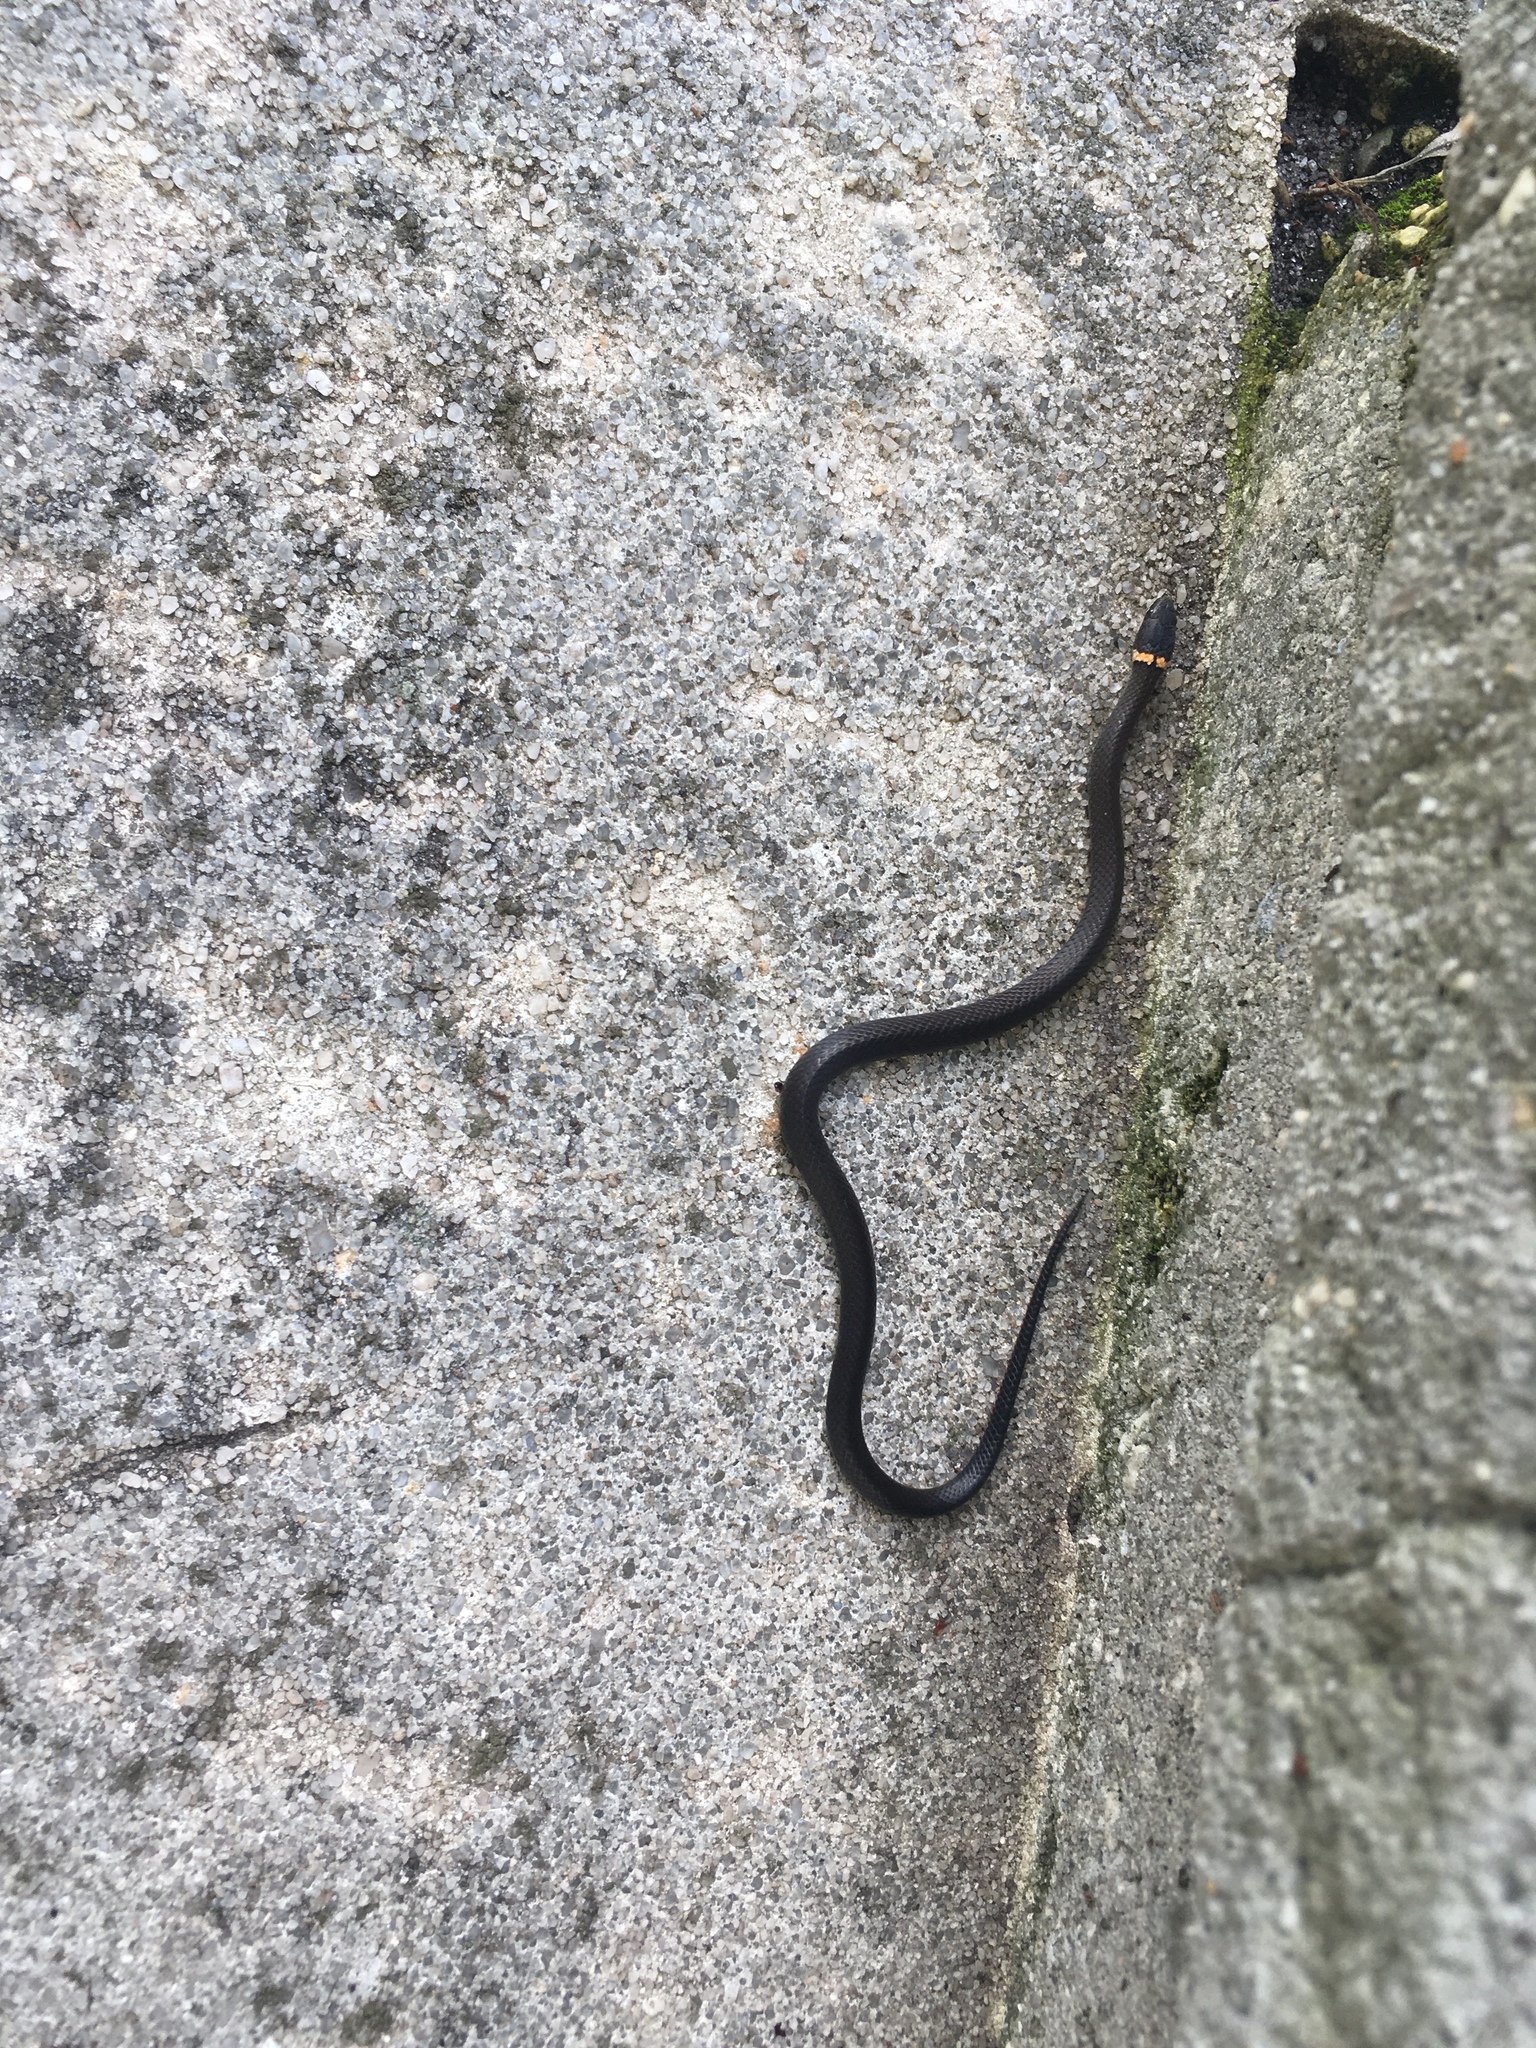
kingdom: Animalia
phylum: Chordata
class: Squamata
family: Colubridae
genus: Diadophis
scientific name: Diadophis punctatus
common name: Ringneck snake
